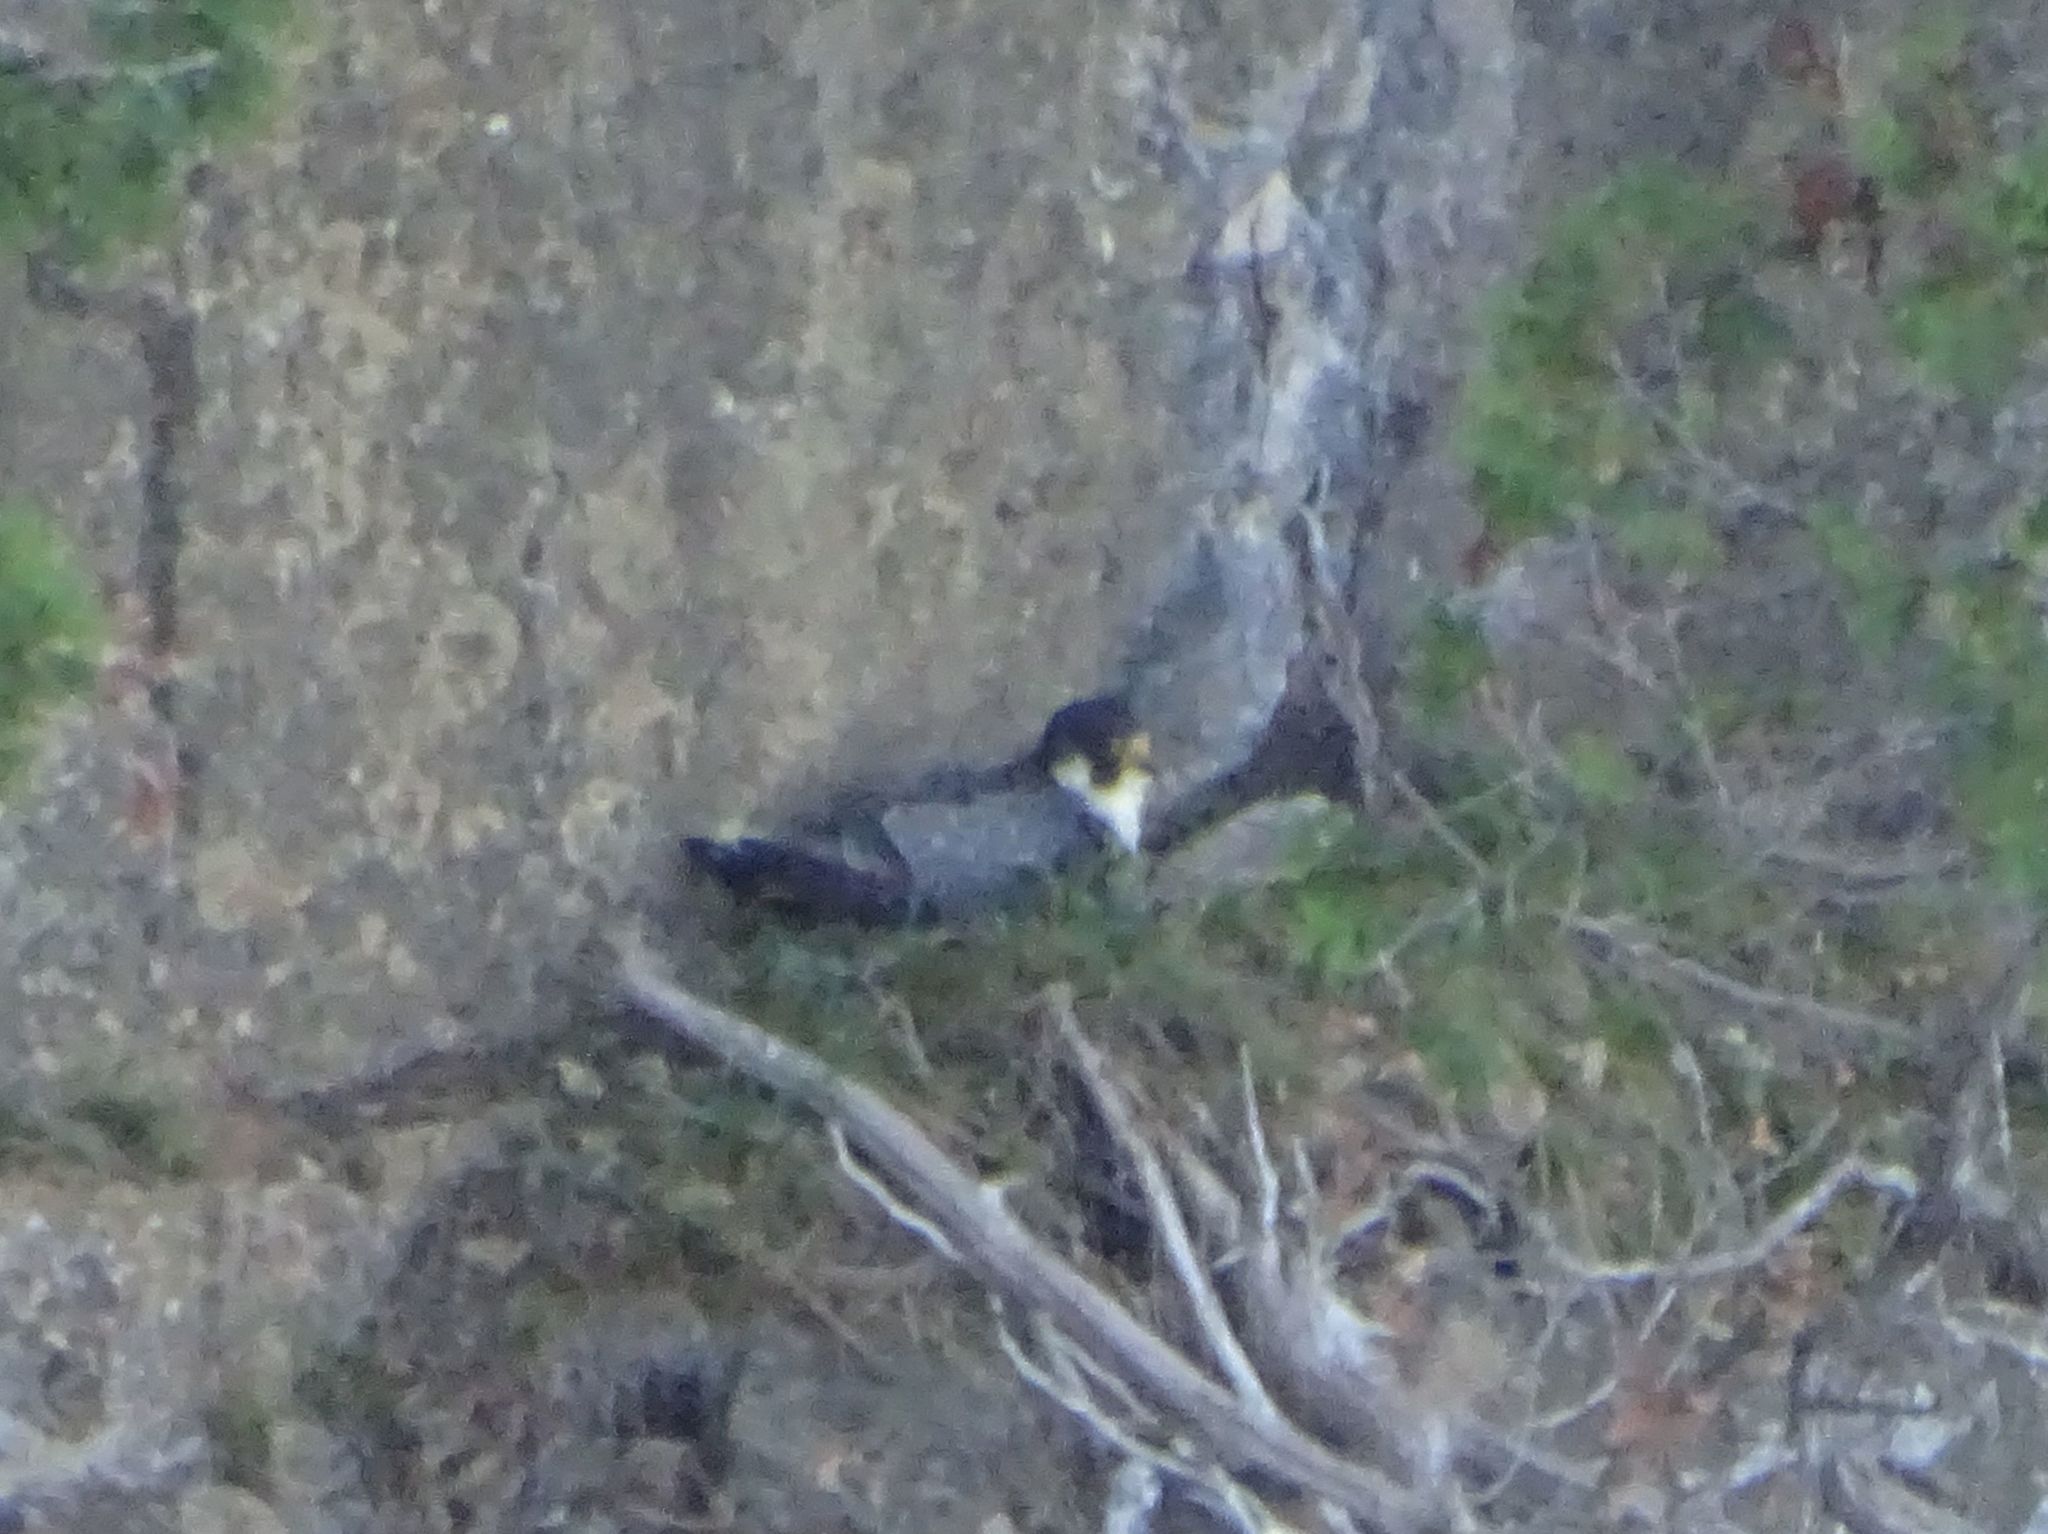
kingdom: Animalia
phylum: Chordata
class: Aves
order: Falconiformes
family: Falconidae
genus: Falco
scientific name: Falco peregrinus
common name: Peregrine falcon
